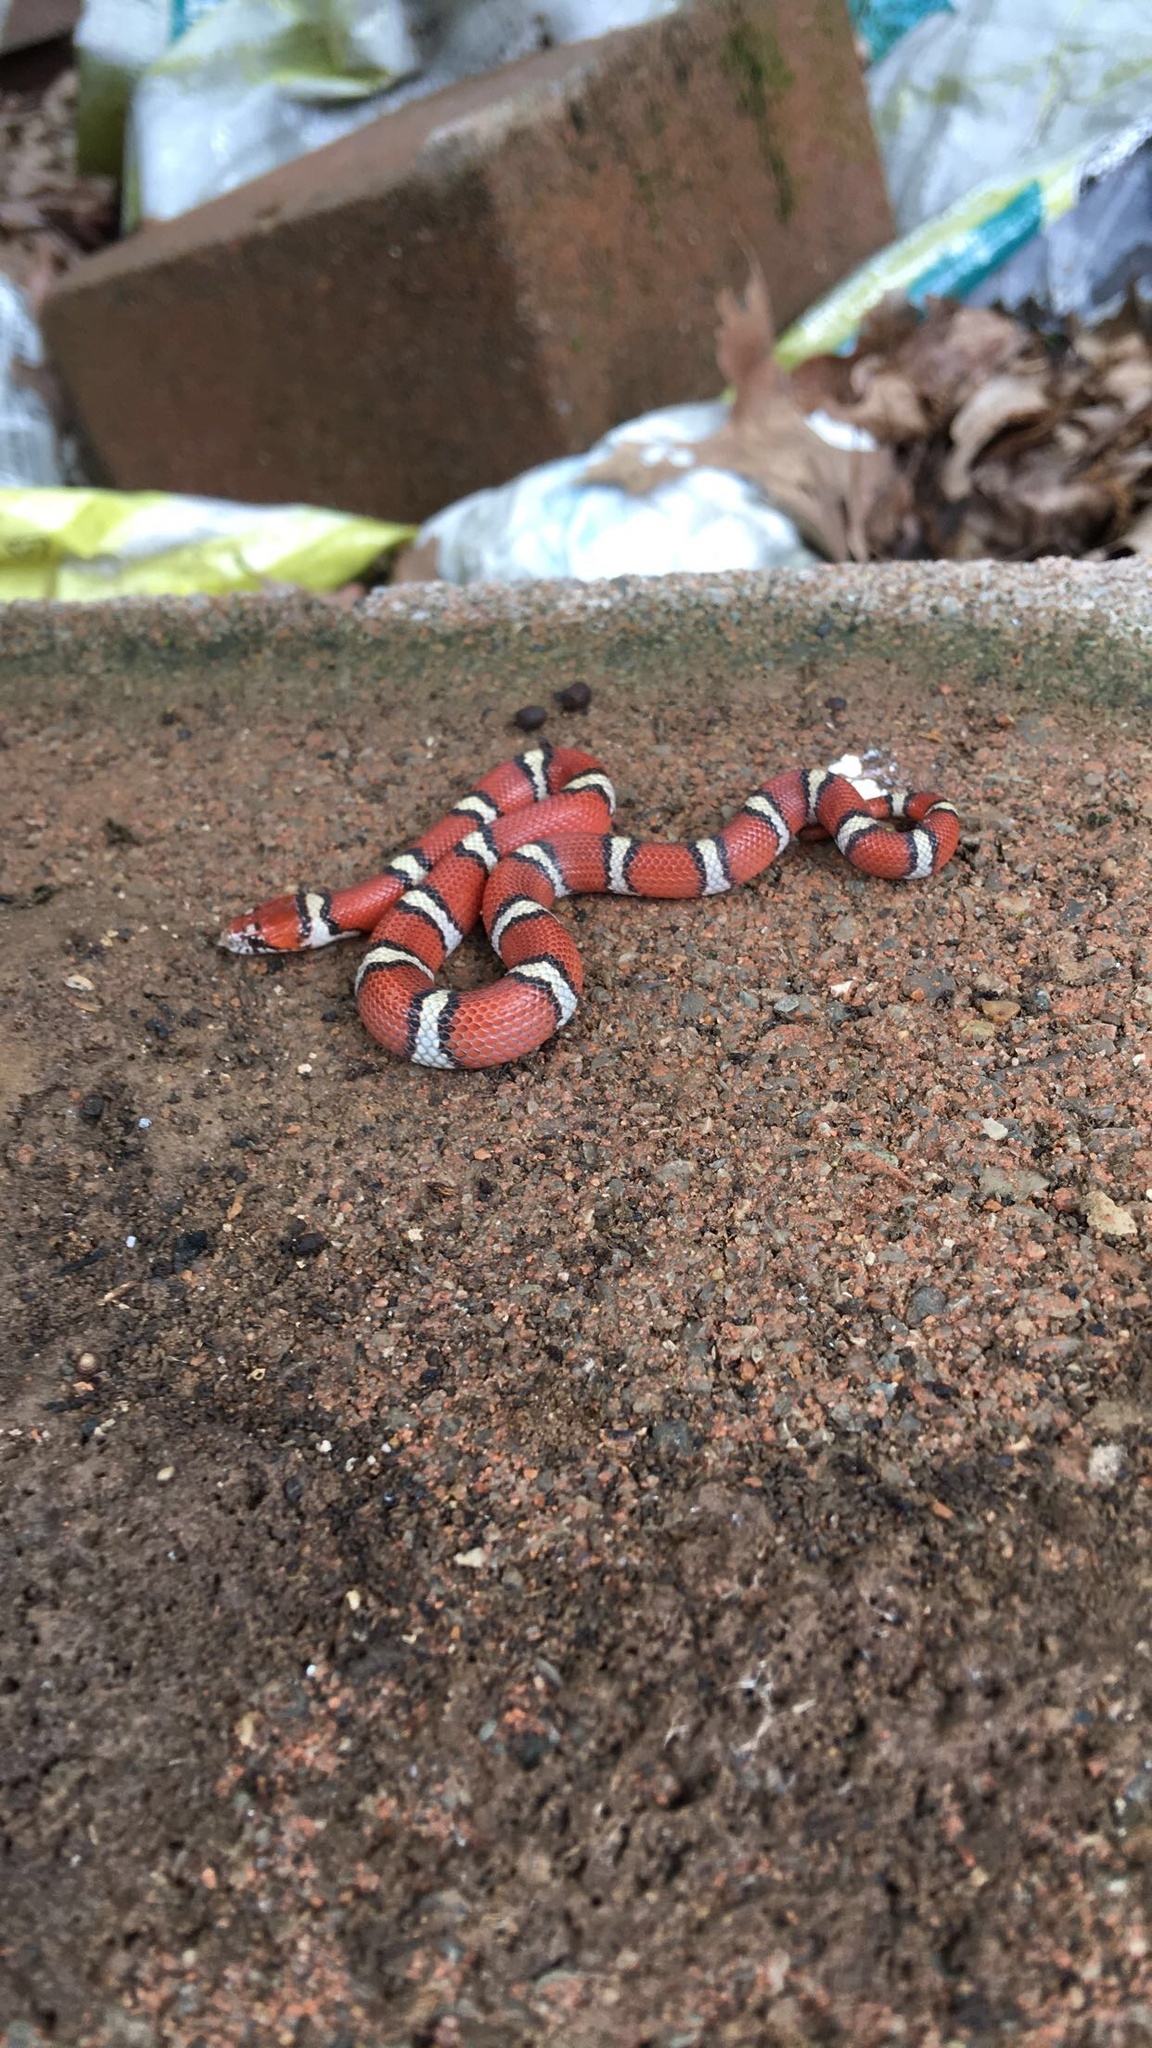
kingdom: Animalia
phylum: Chordata
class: Squamata
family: Colubridae
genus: Lampropeltis
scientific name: Lampropeltis triangulum
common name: Eastern milksnake
